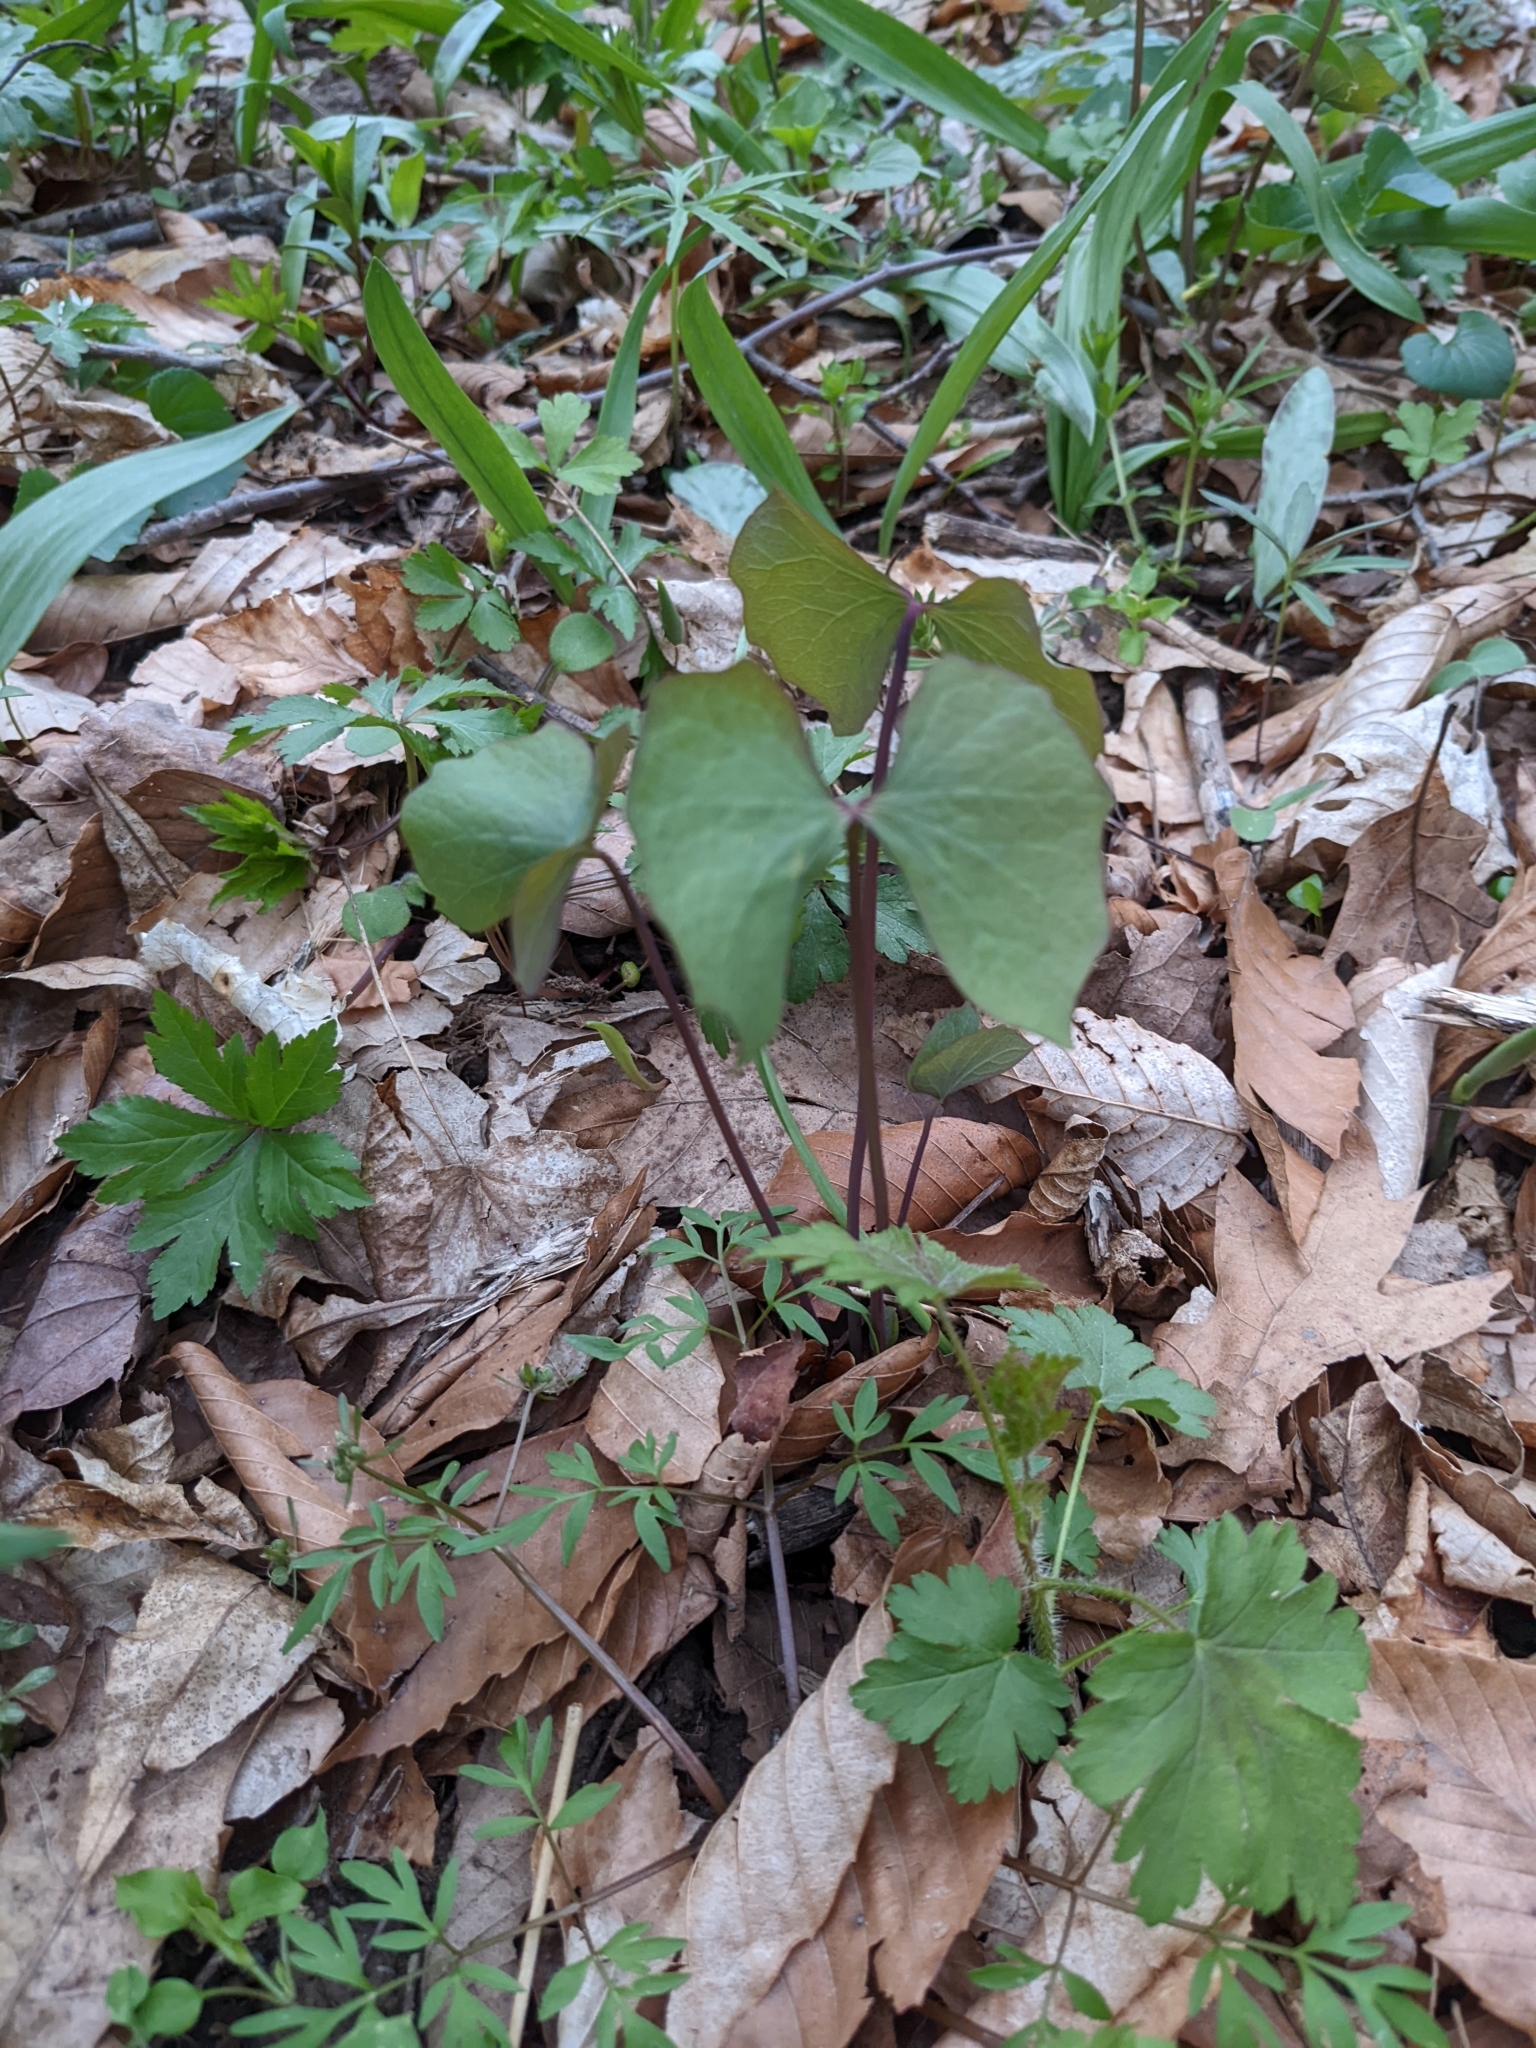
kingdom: Plantae
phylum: Tracheophyta
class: Magnoliopsida
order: Ranunculales
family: Berberidaceae
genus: Jeffersonia
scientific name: Jeffersonia diphylla
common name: Rheumatism-root
